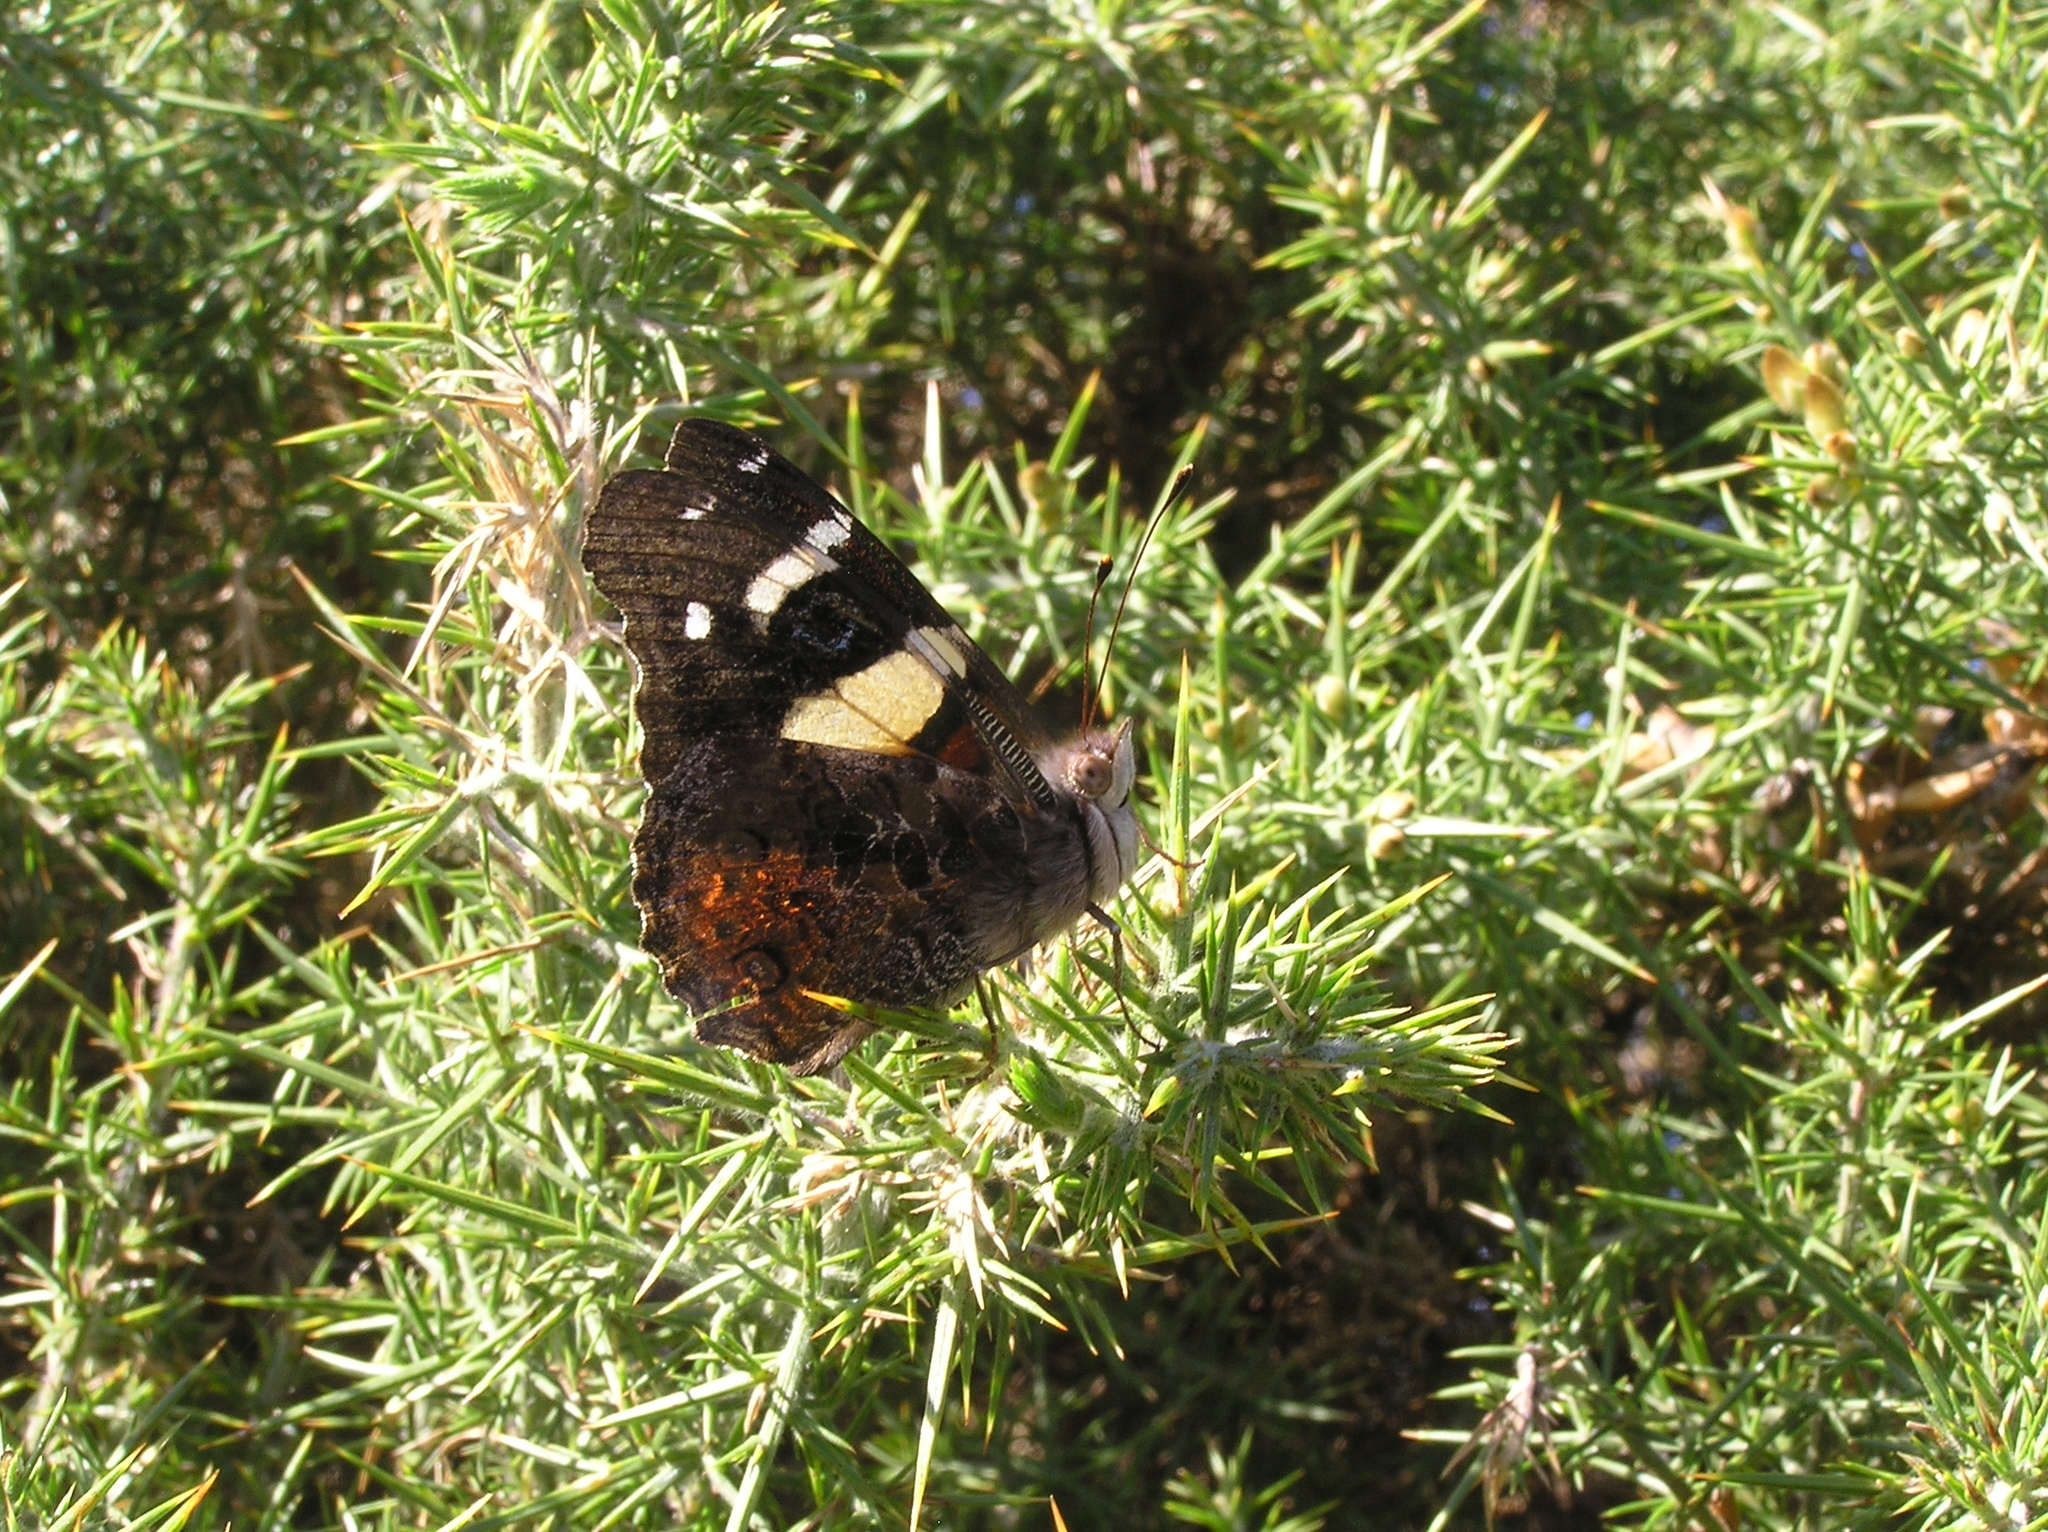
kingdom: Animalia
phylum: Arthropoda
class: Insecta
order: Lepidoptera
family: Nymphalidae
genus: Vanessa
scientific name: Vanessa itea
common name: Yellow admiral
